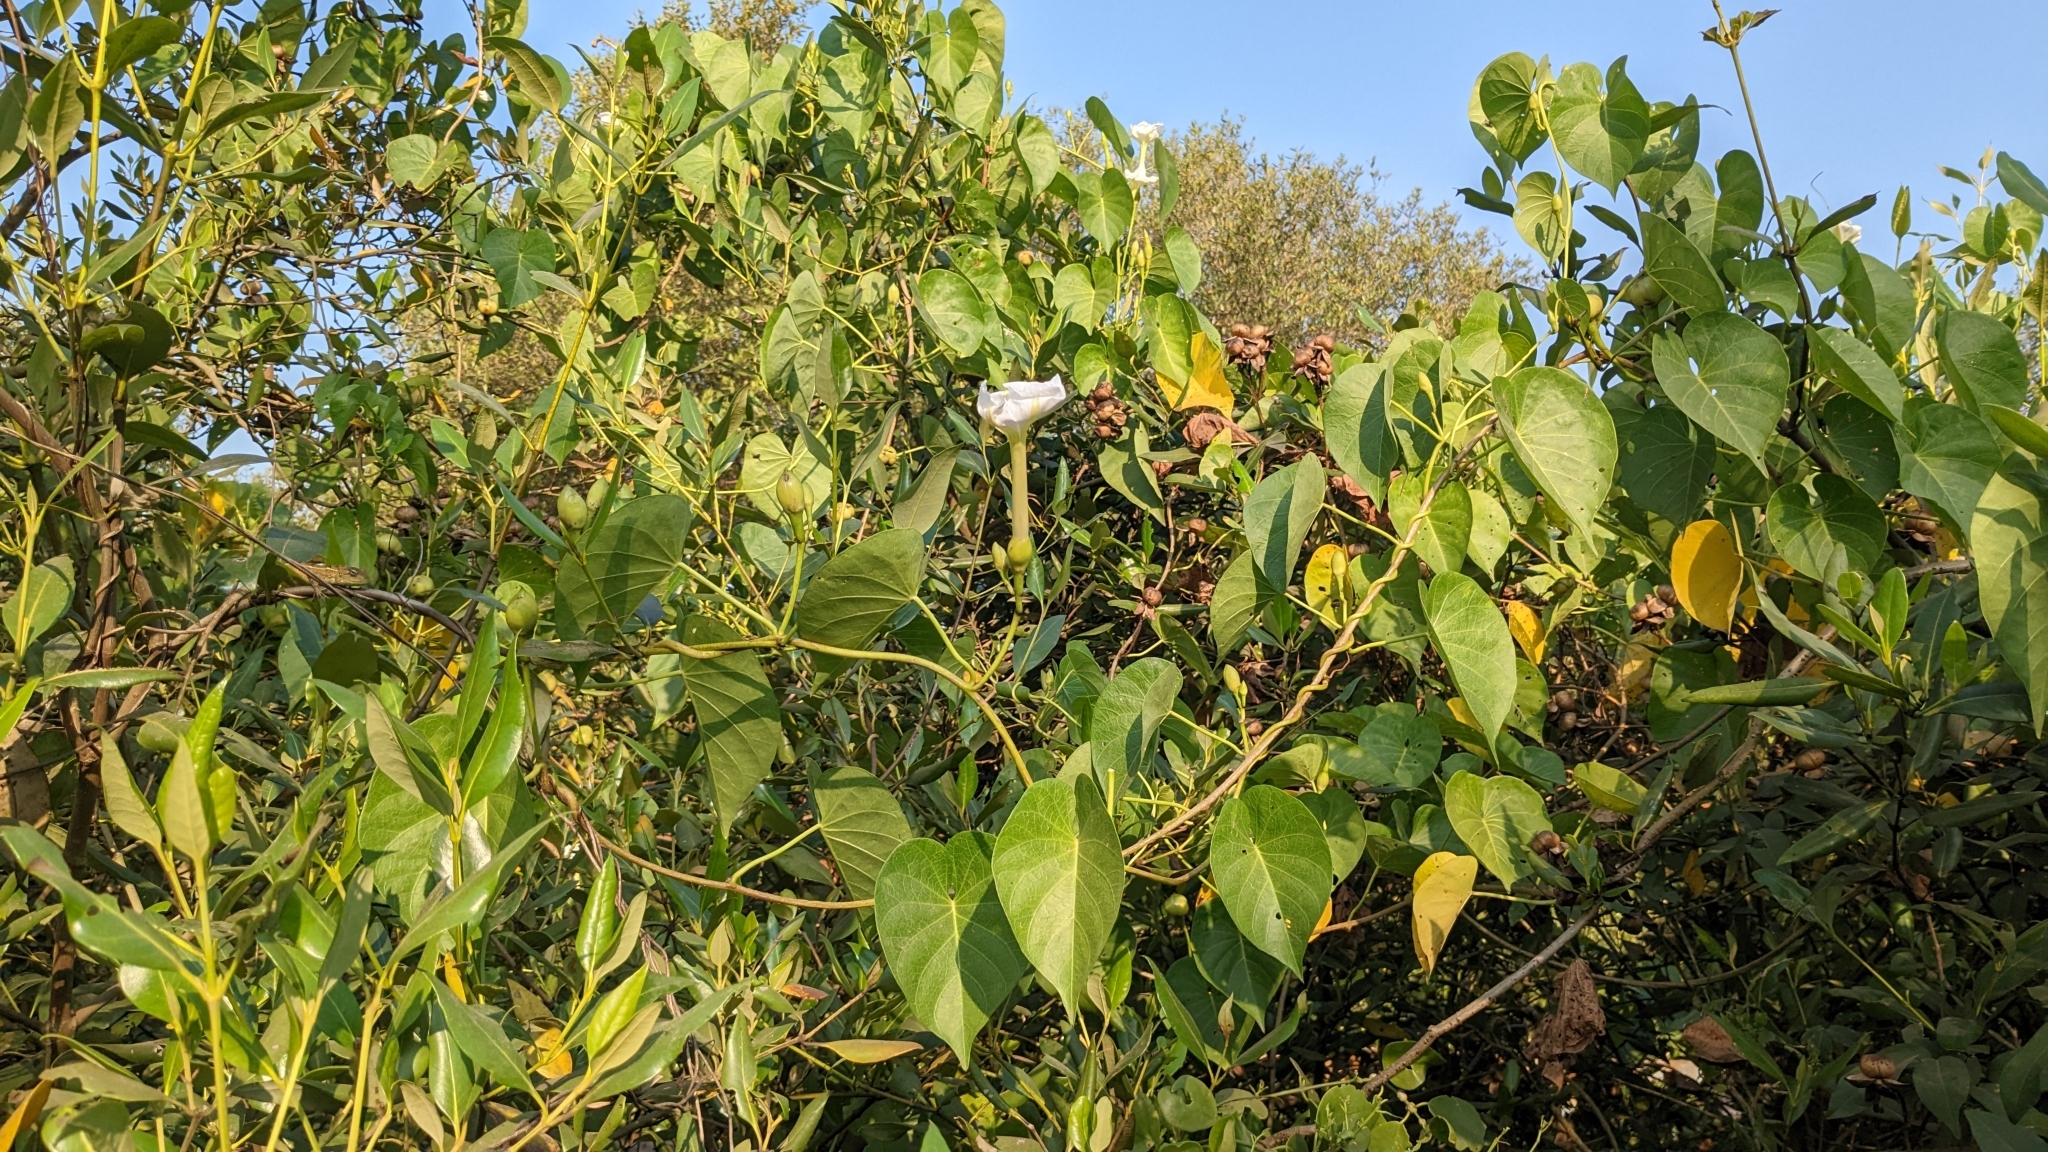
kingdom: Plantae
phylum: Tracheophyta
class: Magnoliopsida
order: Solanales
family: Convolvulaceae
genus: Ipomoea
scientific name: Ipomoea violacea
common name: Beach moonflower
